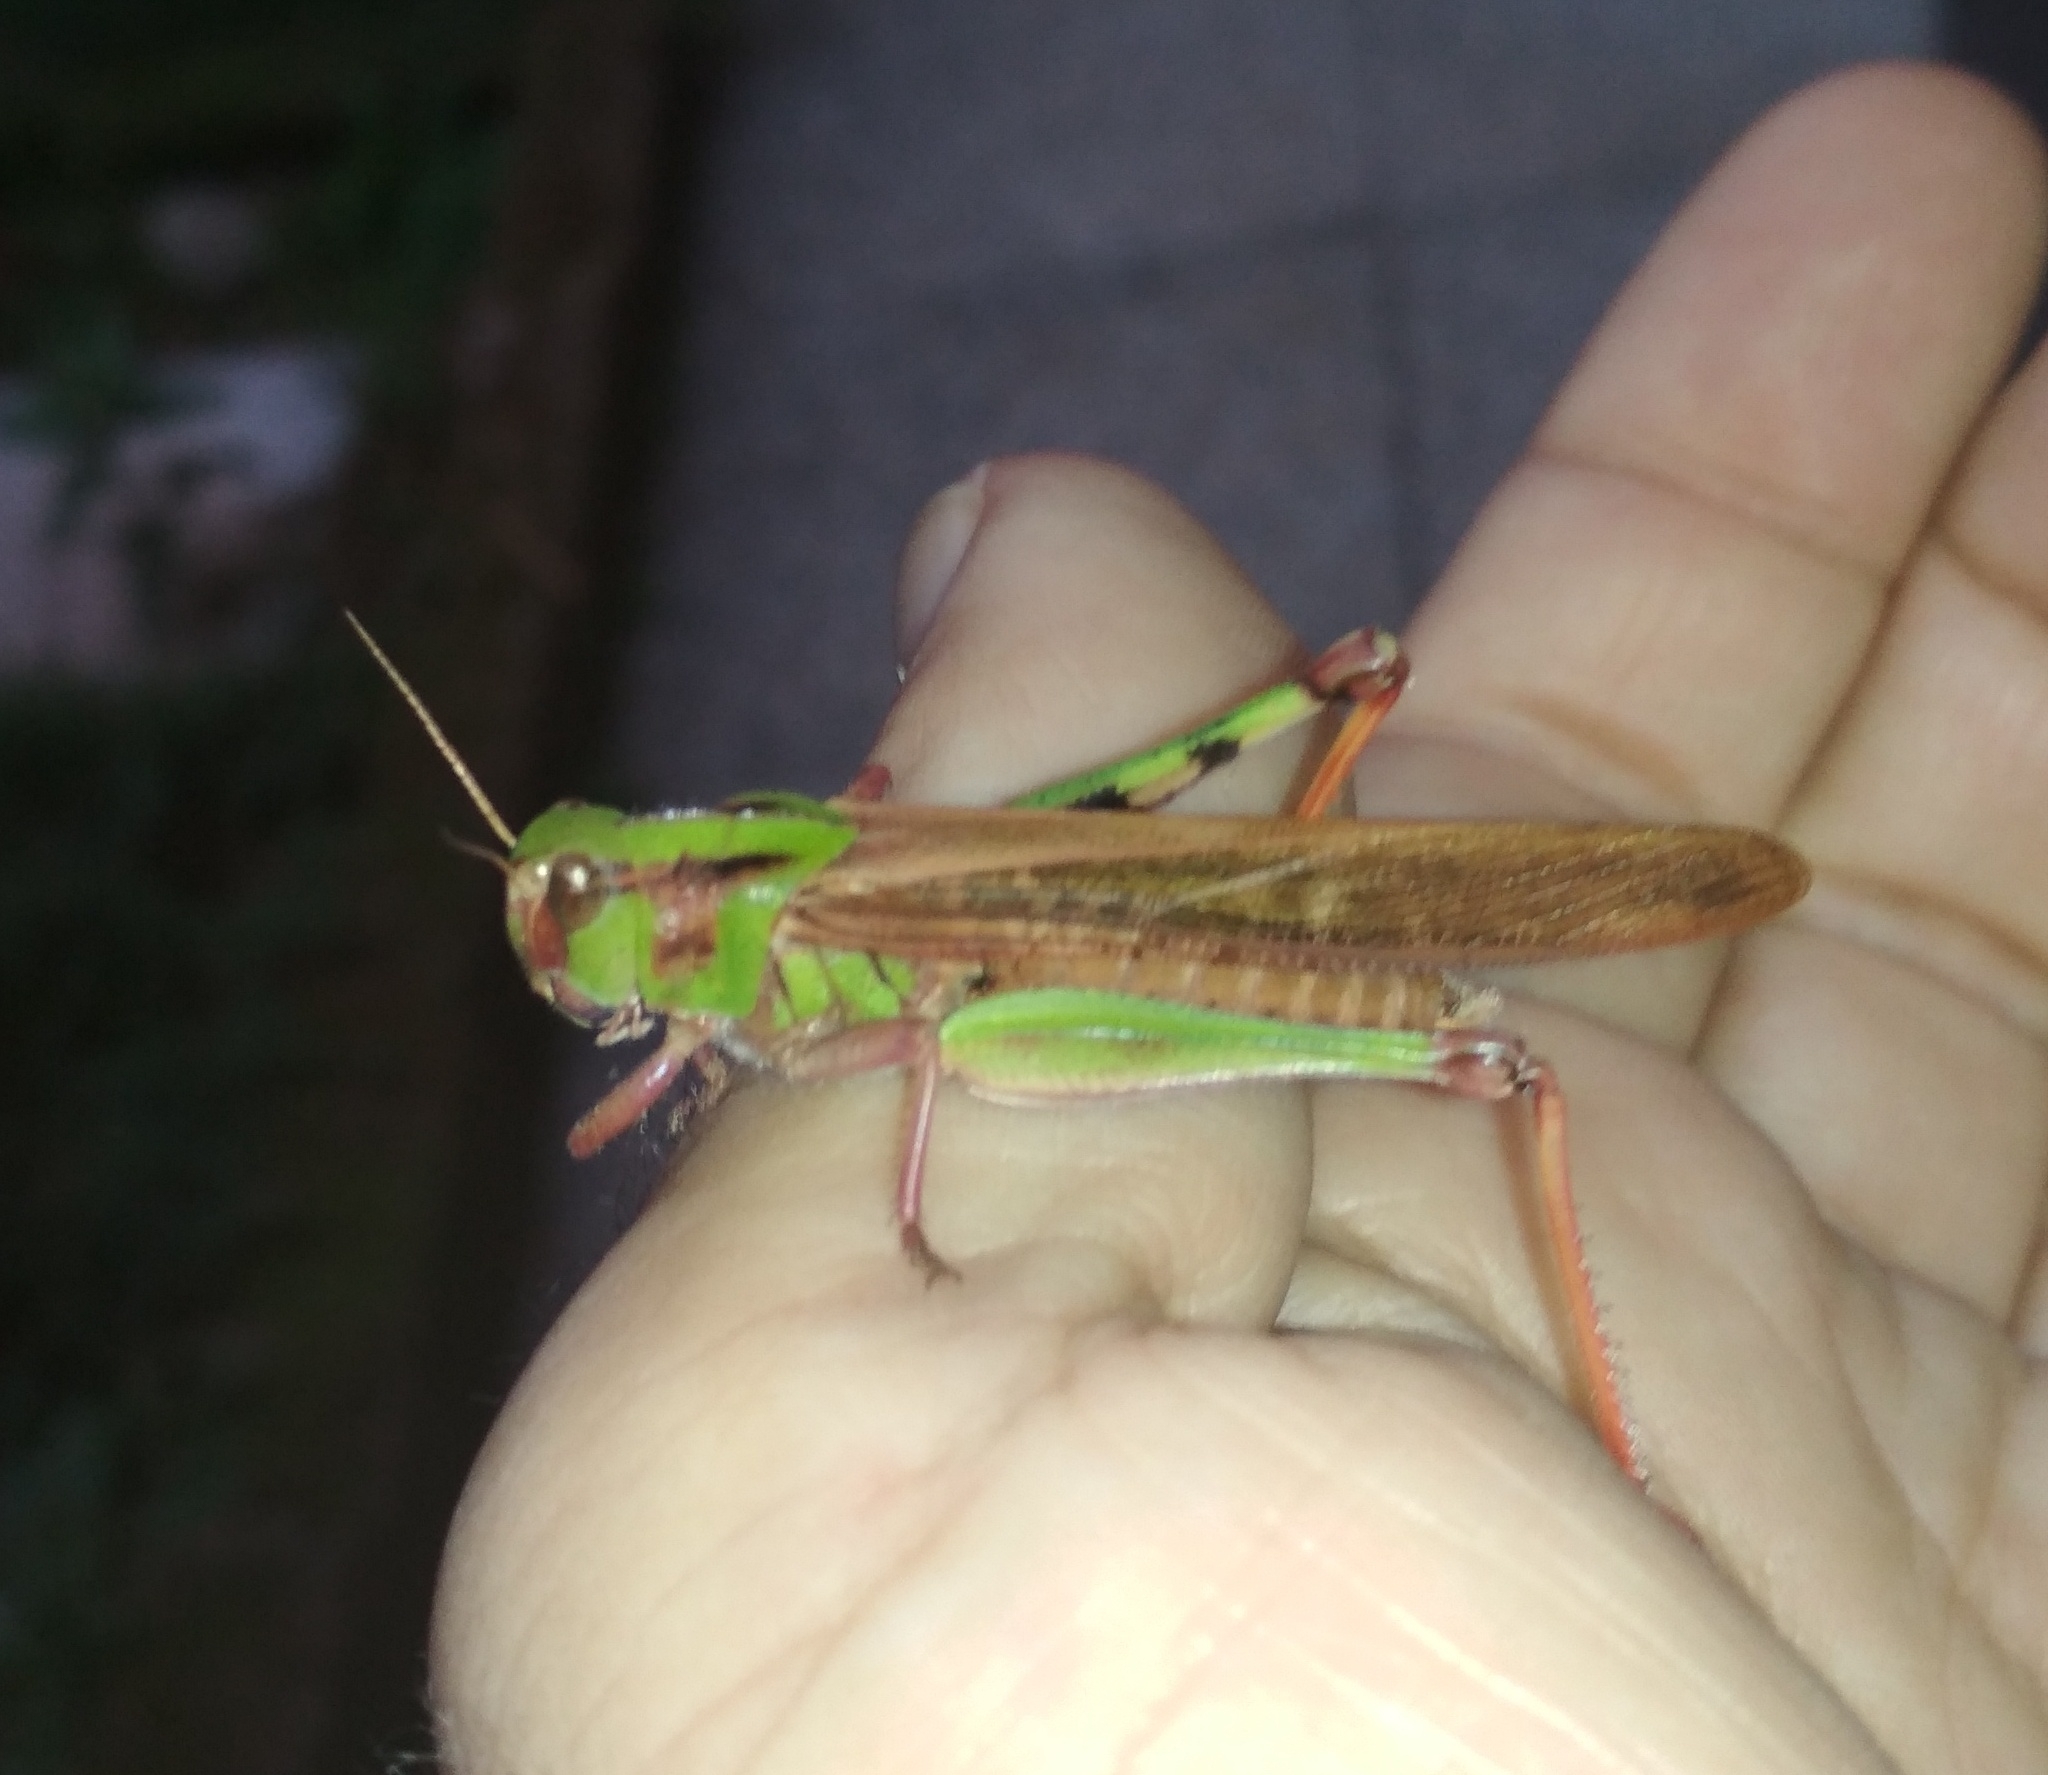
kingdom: Animalia
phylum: Arthropoda
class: Insecta
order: Orthoptera
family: Acrididae
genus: Locusta
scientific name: Locusta migratoria
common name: Migratory locust
